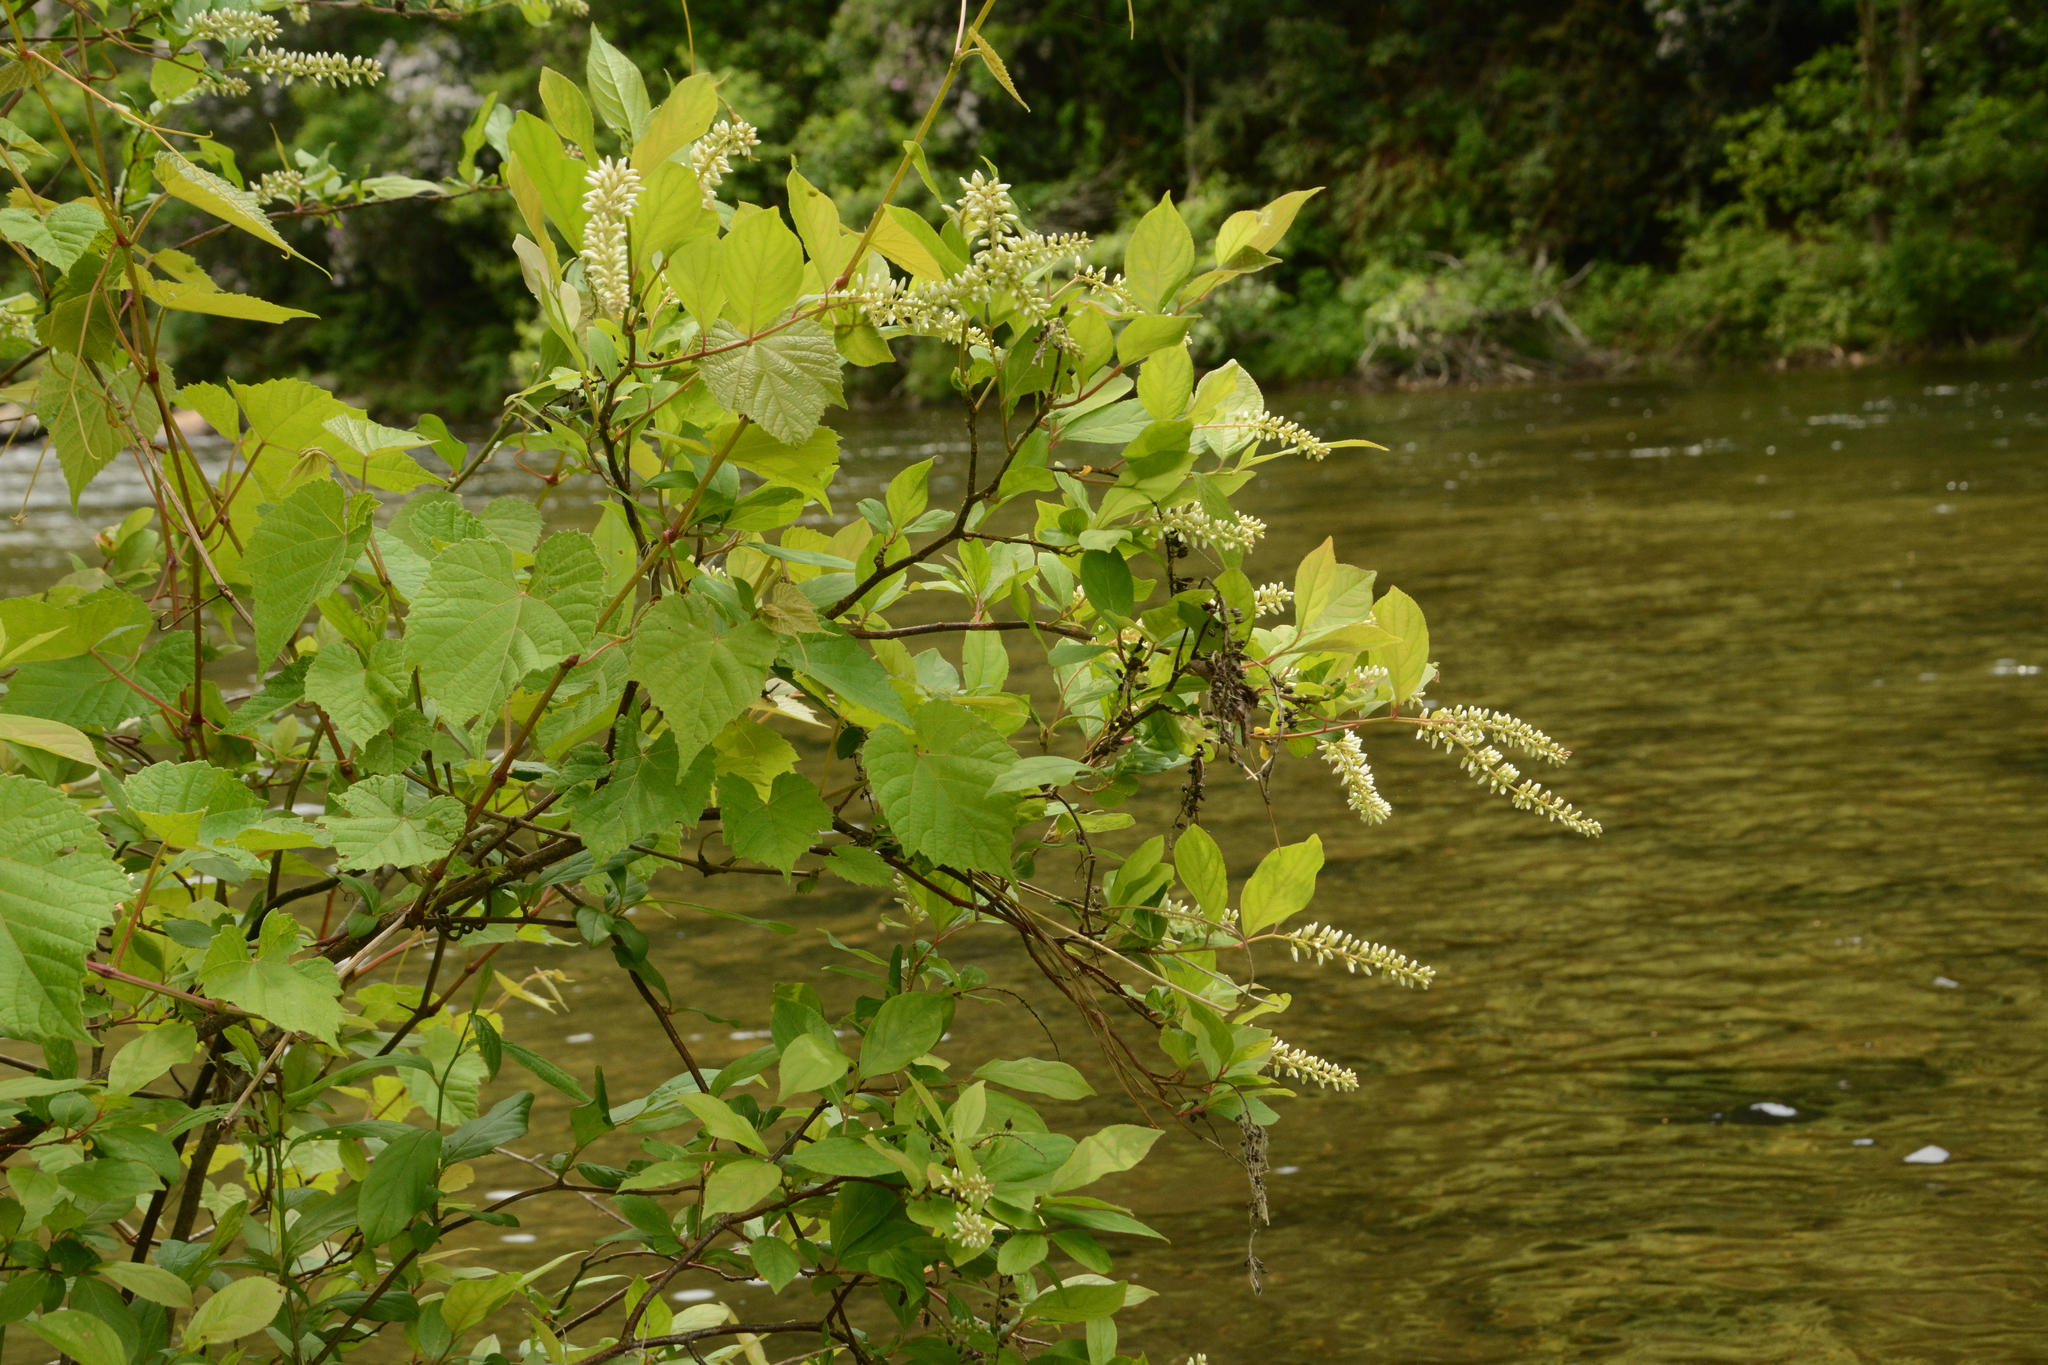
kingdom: Plantae
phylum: Tracheophyta
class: Magnoliopsida
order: Saxifragales
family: Iteaceae
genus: Itea
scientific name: Itea virginica
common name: Sweetspire
